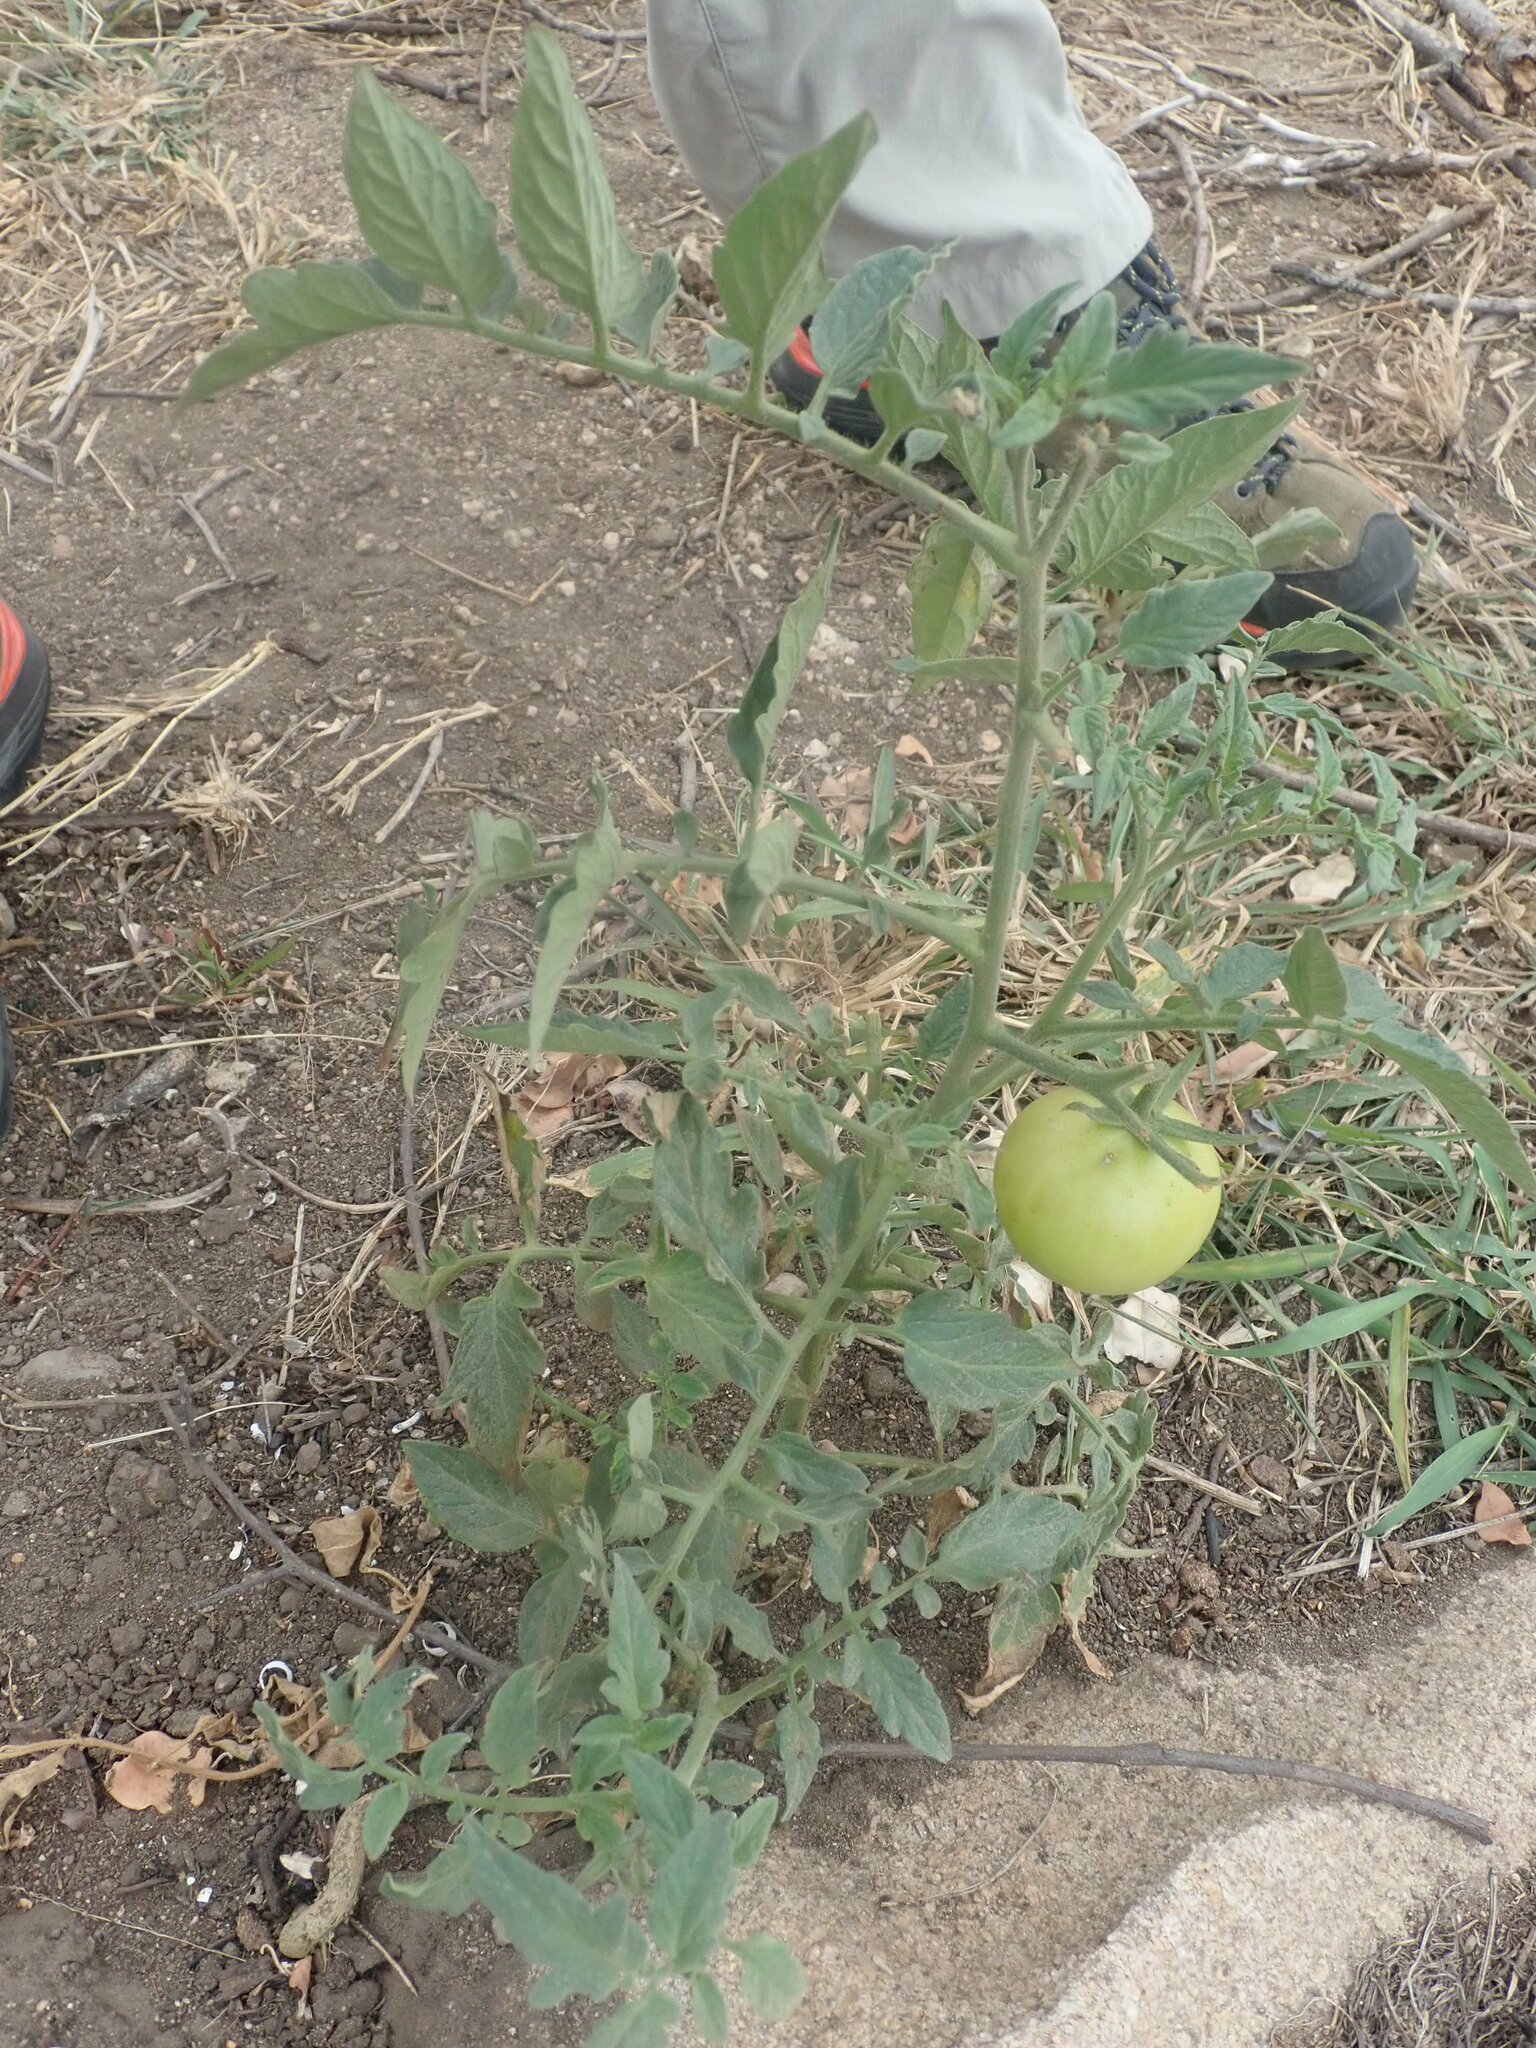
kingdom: Plantae
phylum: Tracheophyta
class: Magnoliopsida
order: Solanales
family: Solanaceae
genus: Solanum
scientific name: Solanum lycopersicum
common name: Garden tomato
